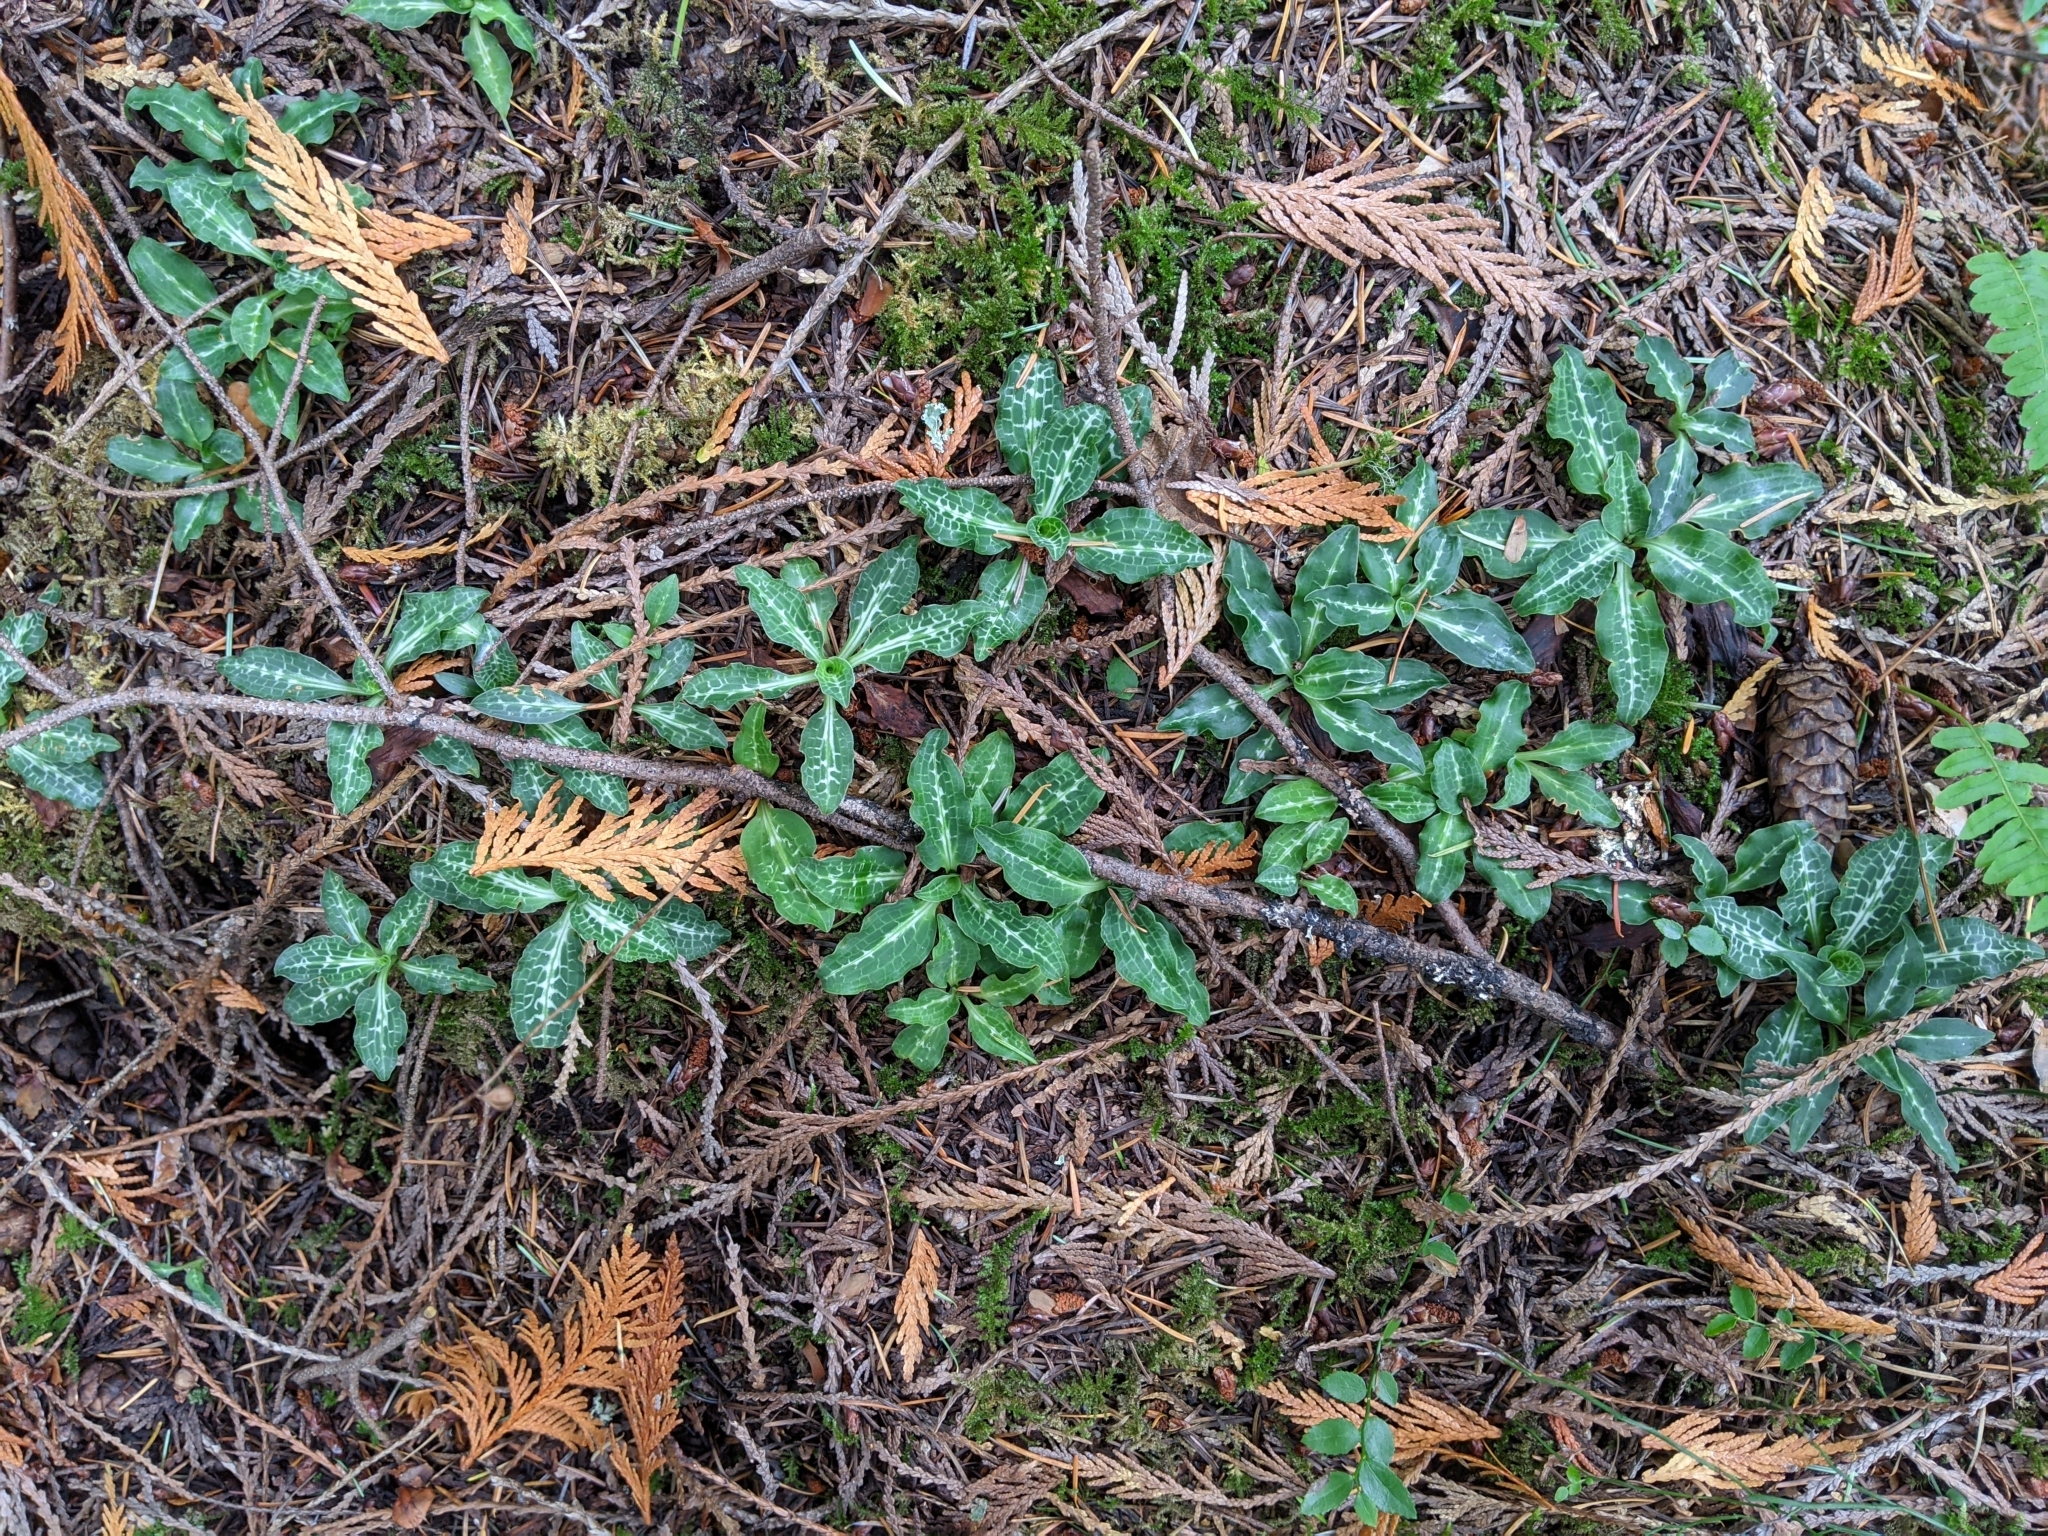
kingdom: Plantae
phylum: Tracheophyta
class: Liliopsida
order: Asparagales
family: Orchidaceae
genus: Goodyera
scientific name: Goodyera oblongifolia
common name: Giant rattlesnake-plantain
